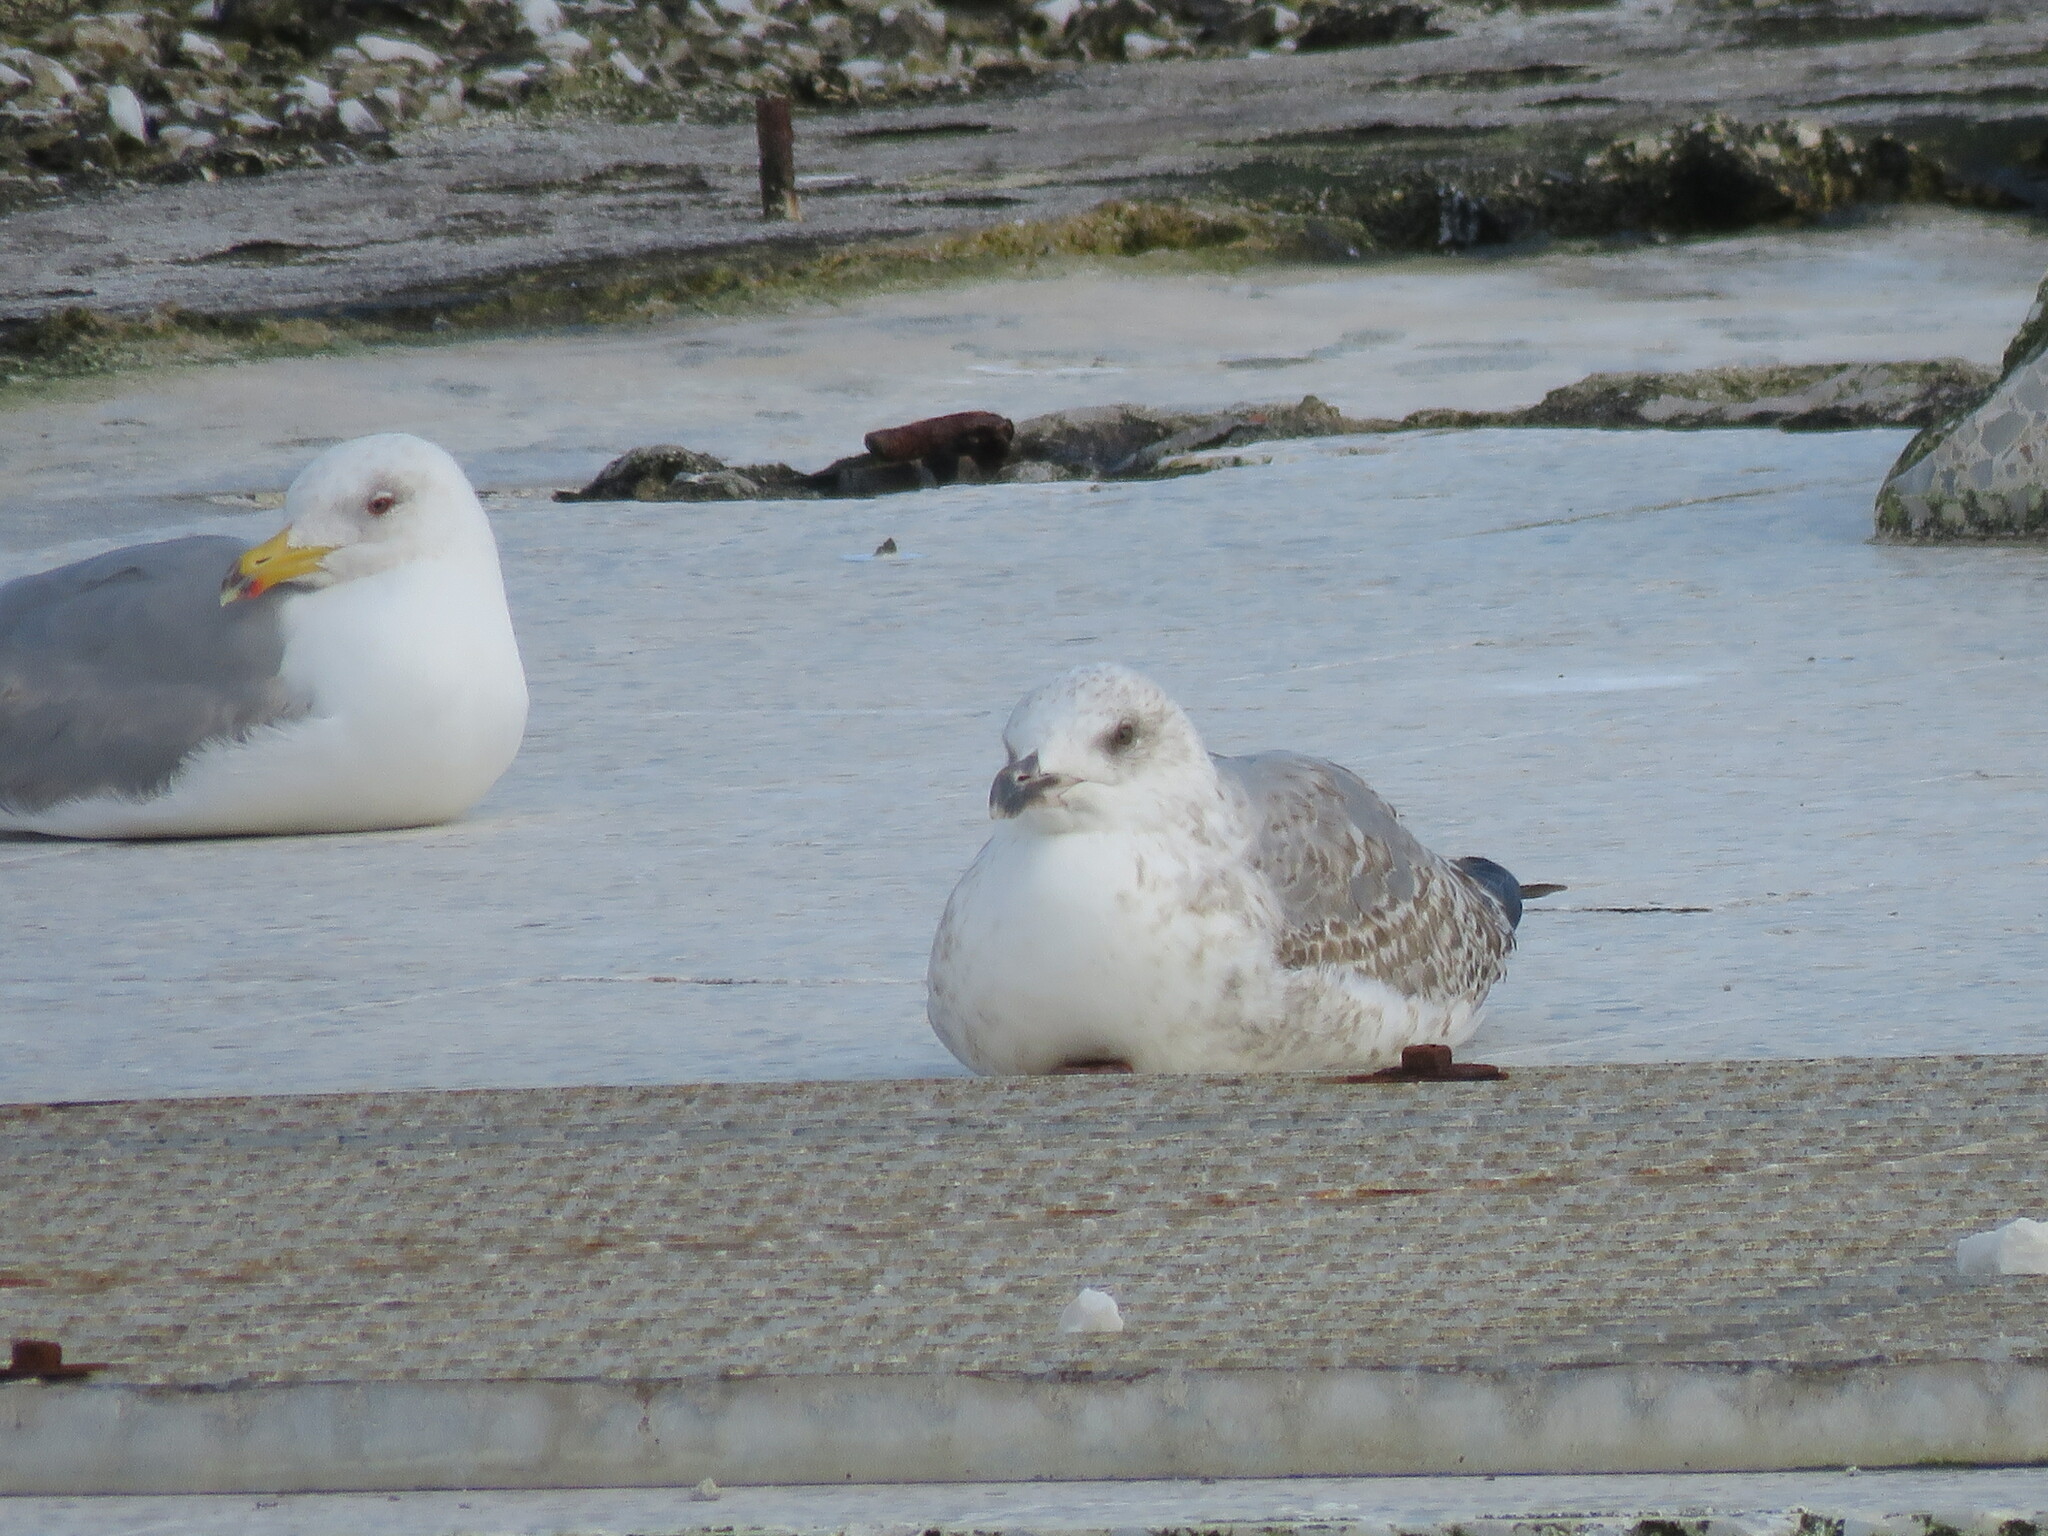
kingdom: Animalia
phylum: Chordata
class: Aves
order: Charadriiformes
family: Laridae
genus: Larus
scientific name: Larus michahellis
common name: Yellow-legged gull
